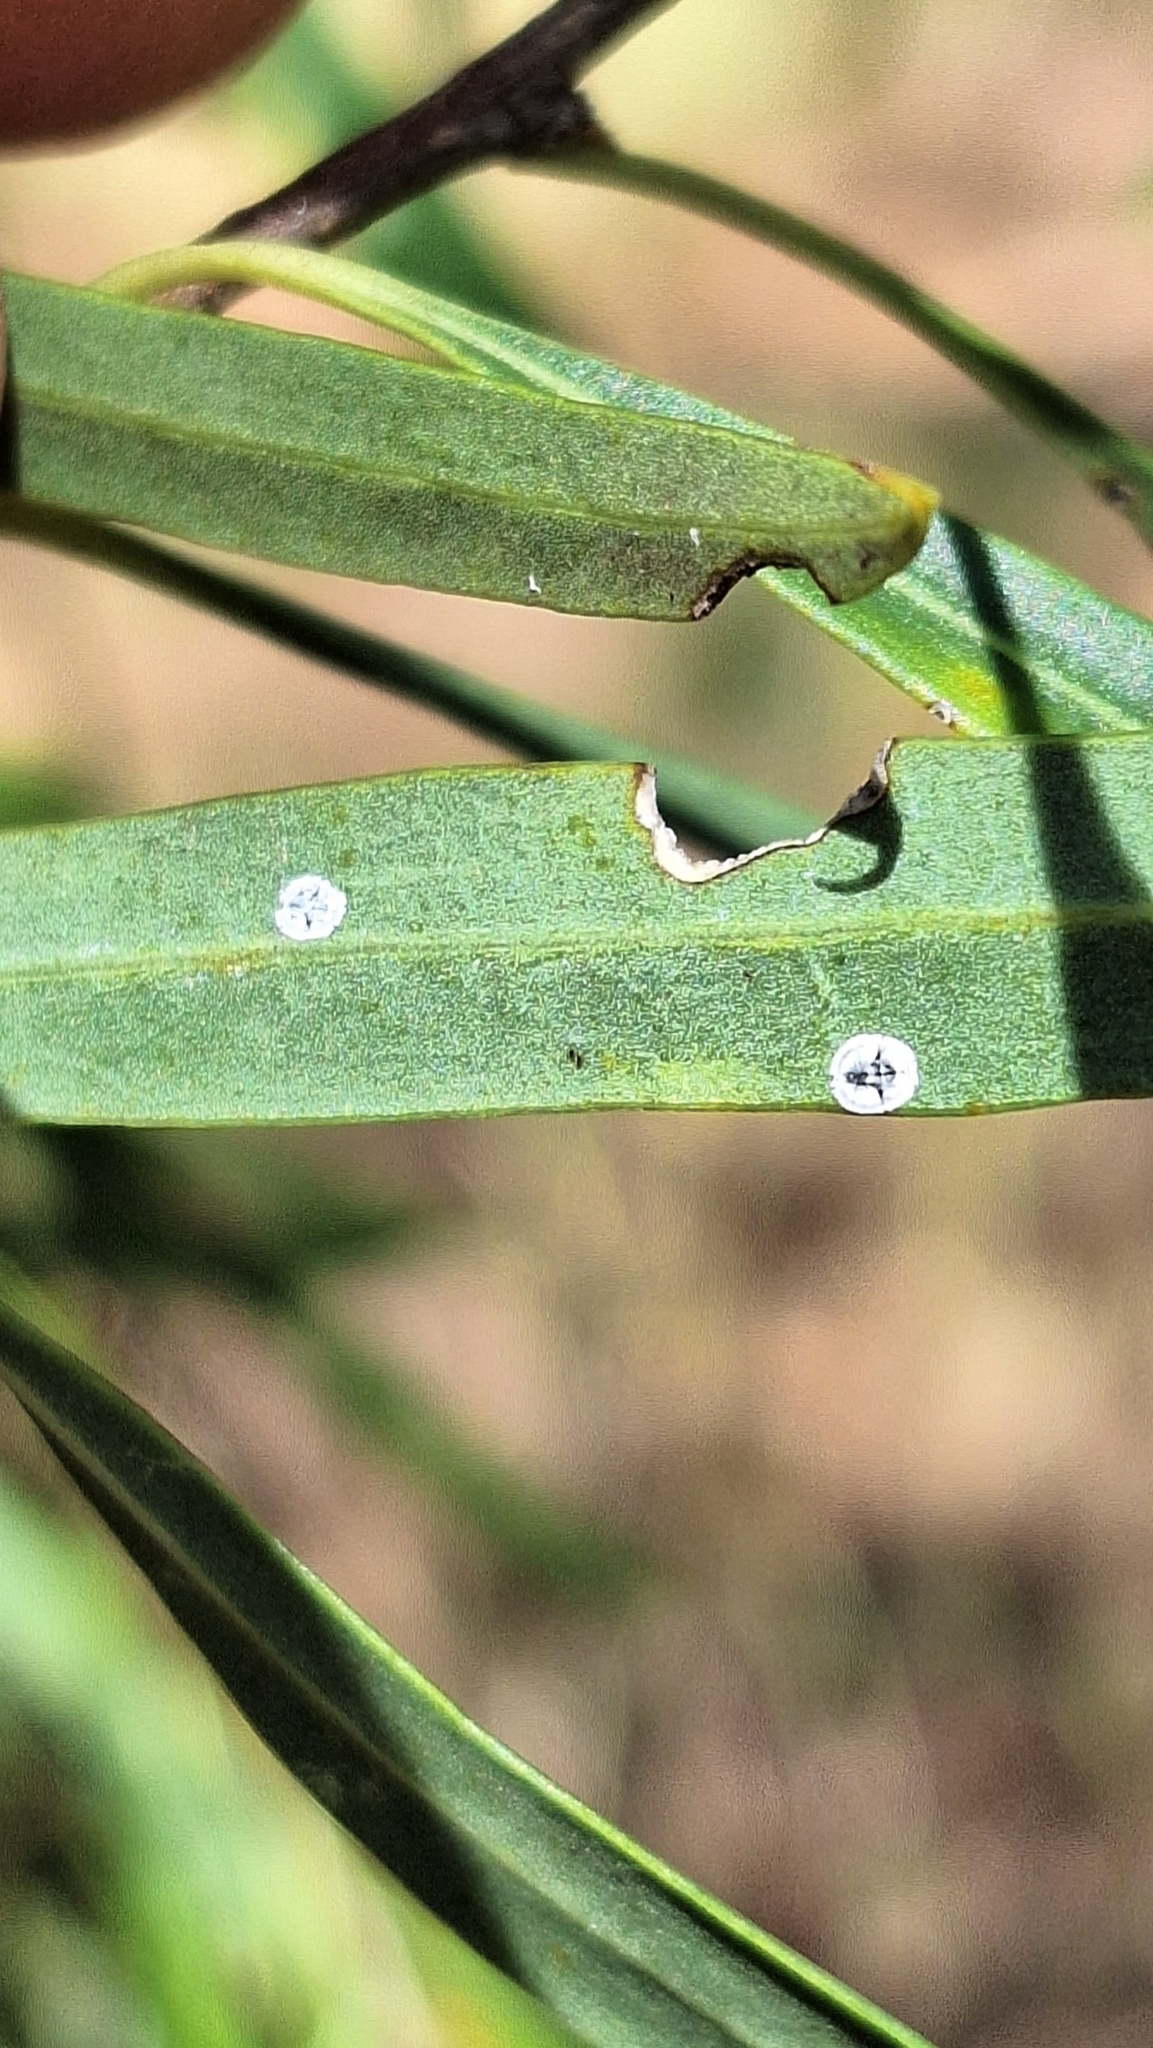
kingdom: Animalia
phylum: Arthropoda
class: Insecta
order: Hemiptera
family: Aleyrodidae
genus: Dumbletoniella
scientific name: Dumbletoniella pittospori
